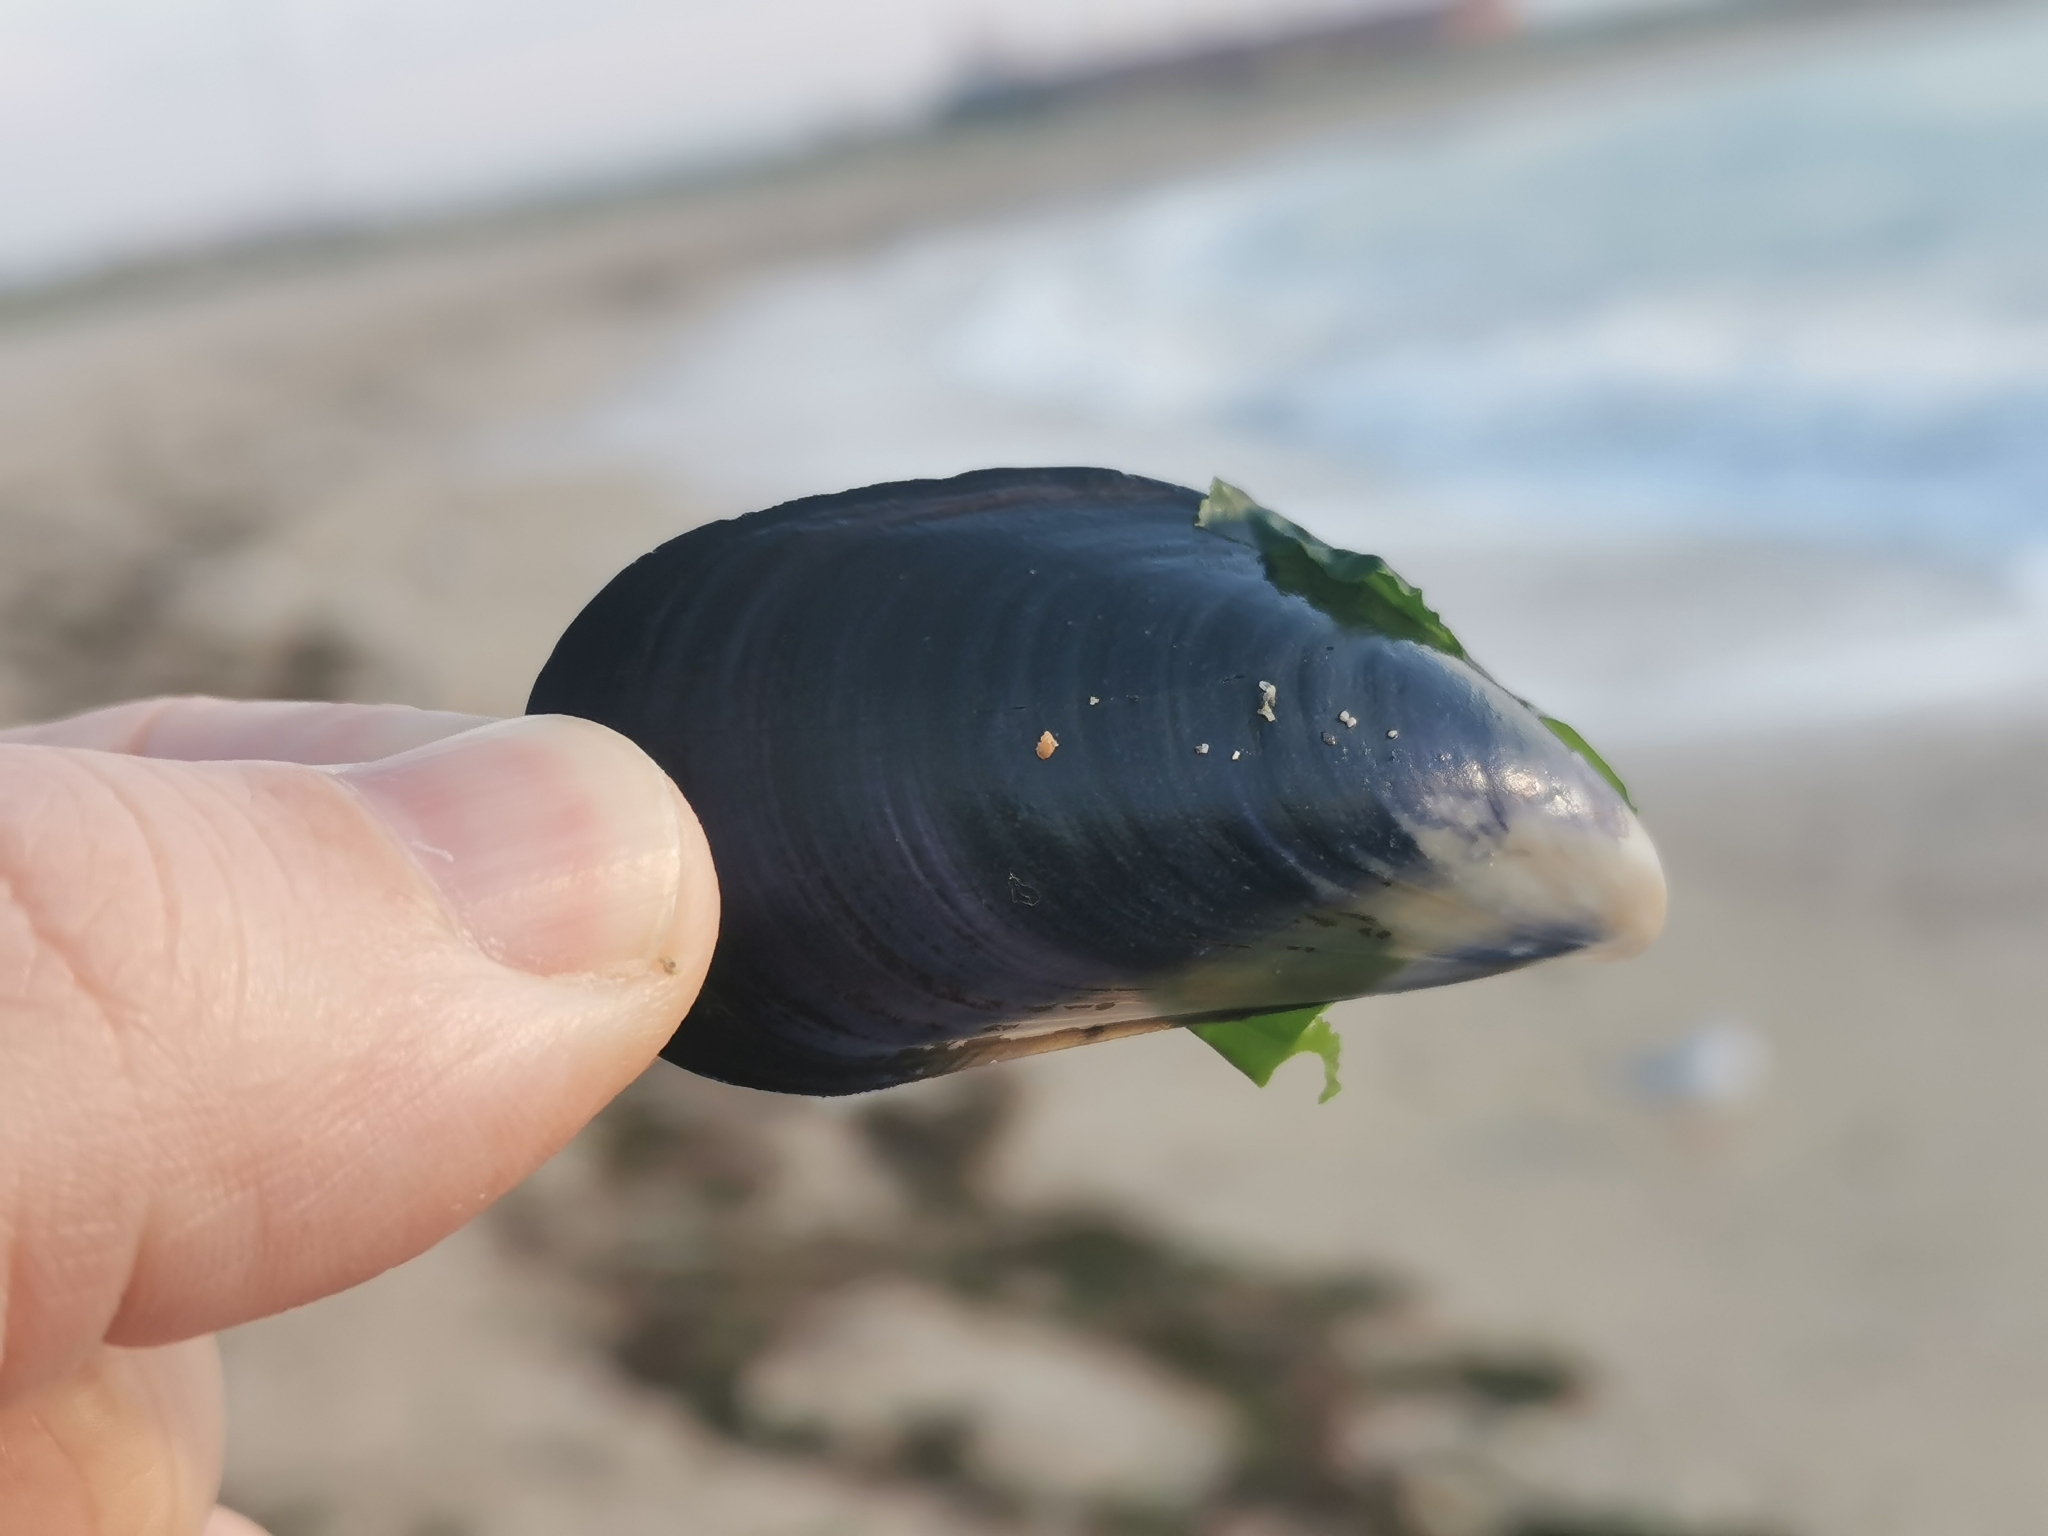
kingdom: Animalia
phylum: Mollusca
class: Bivalvia
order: Mytilida
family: Mytilidae
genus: Mytilus
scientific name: Mytilus galloprovincialis
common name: Mediterranean mussel
